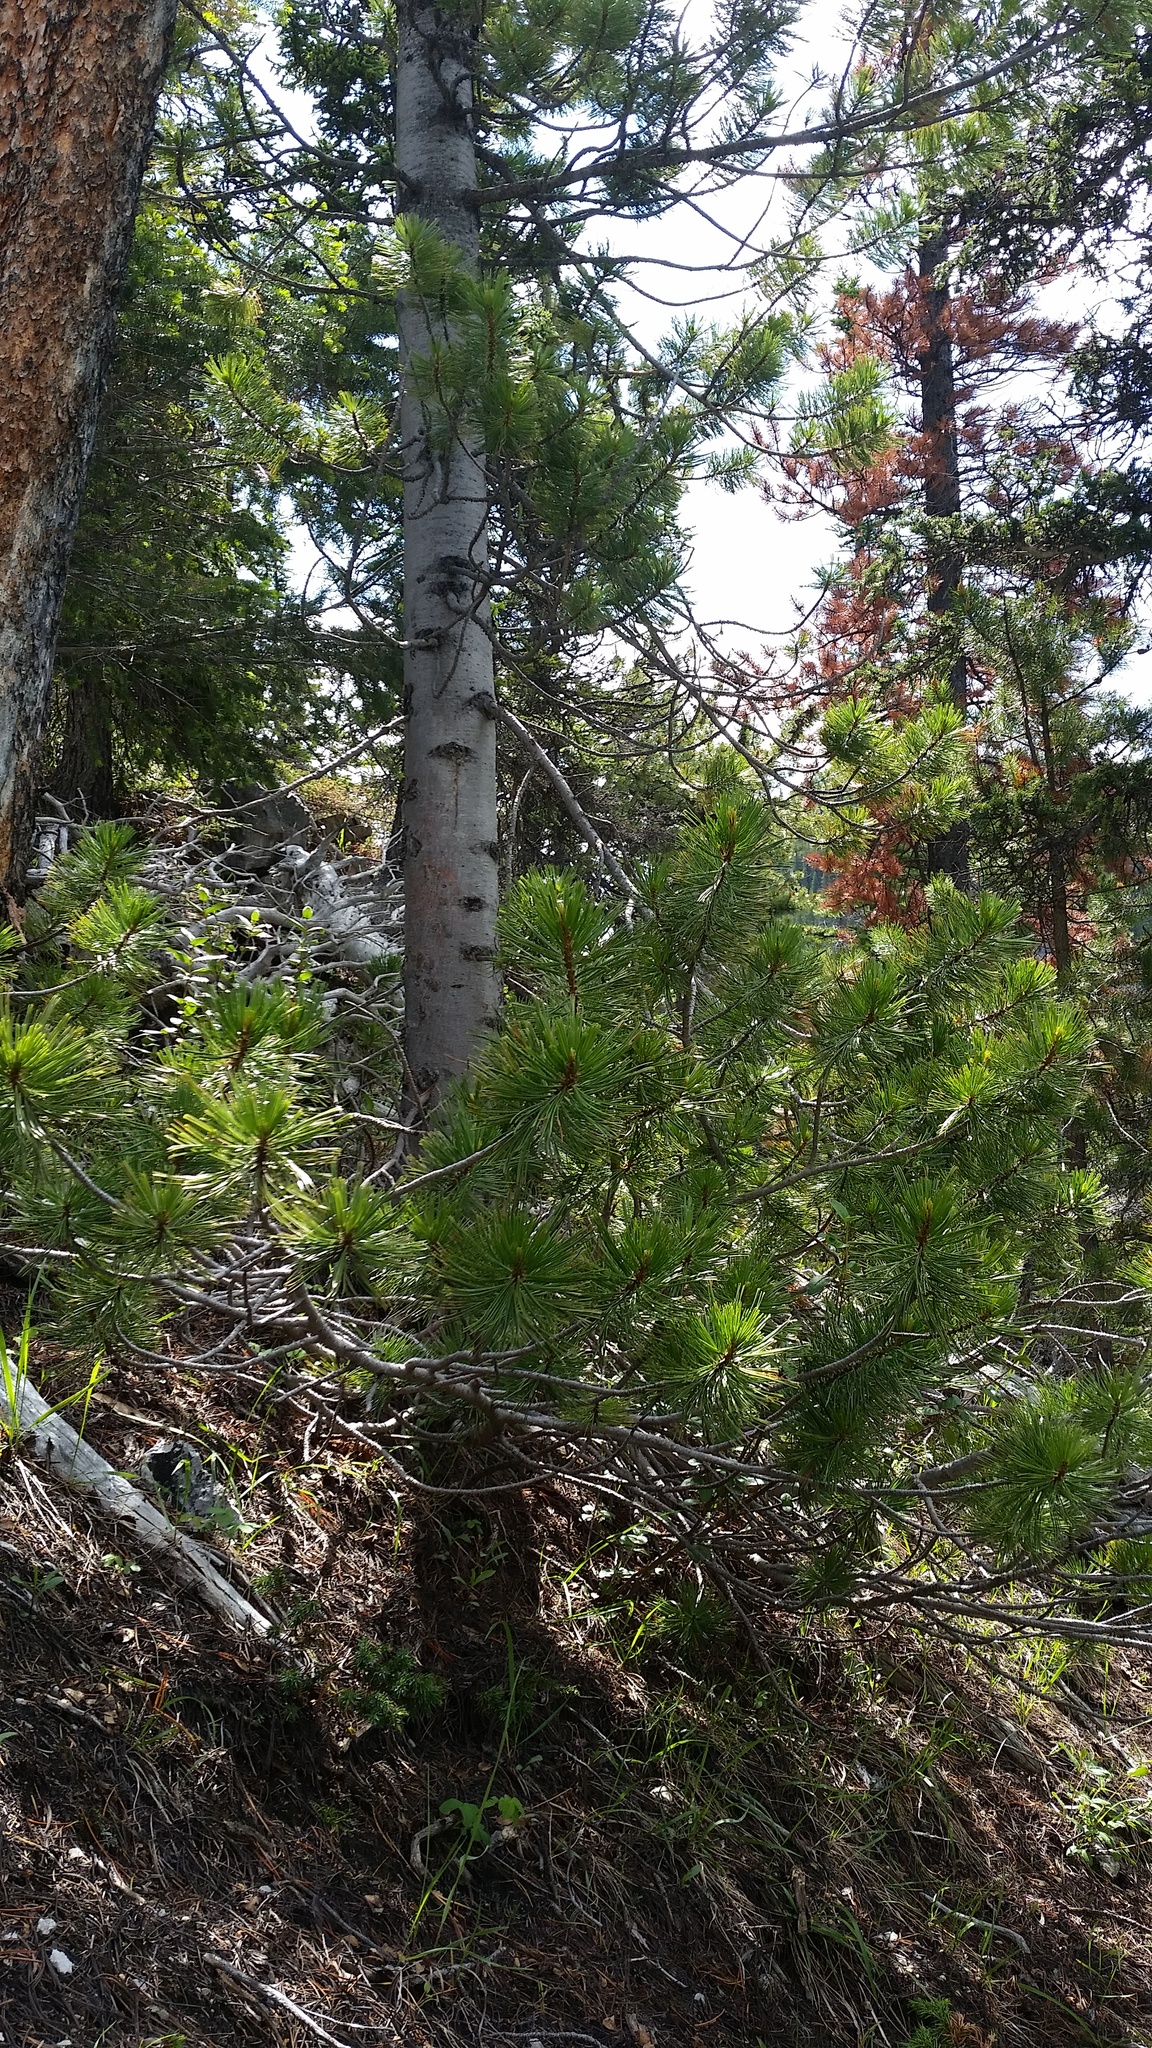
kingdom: Plantae
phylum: Tracheophyta
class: Pinopsida
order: Pinales
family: Pinaceae
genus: Pinus
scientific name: Pinus albicaulis
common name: Whitebark pine
